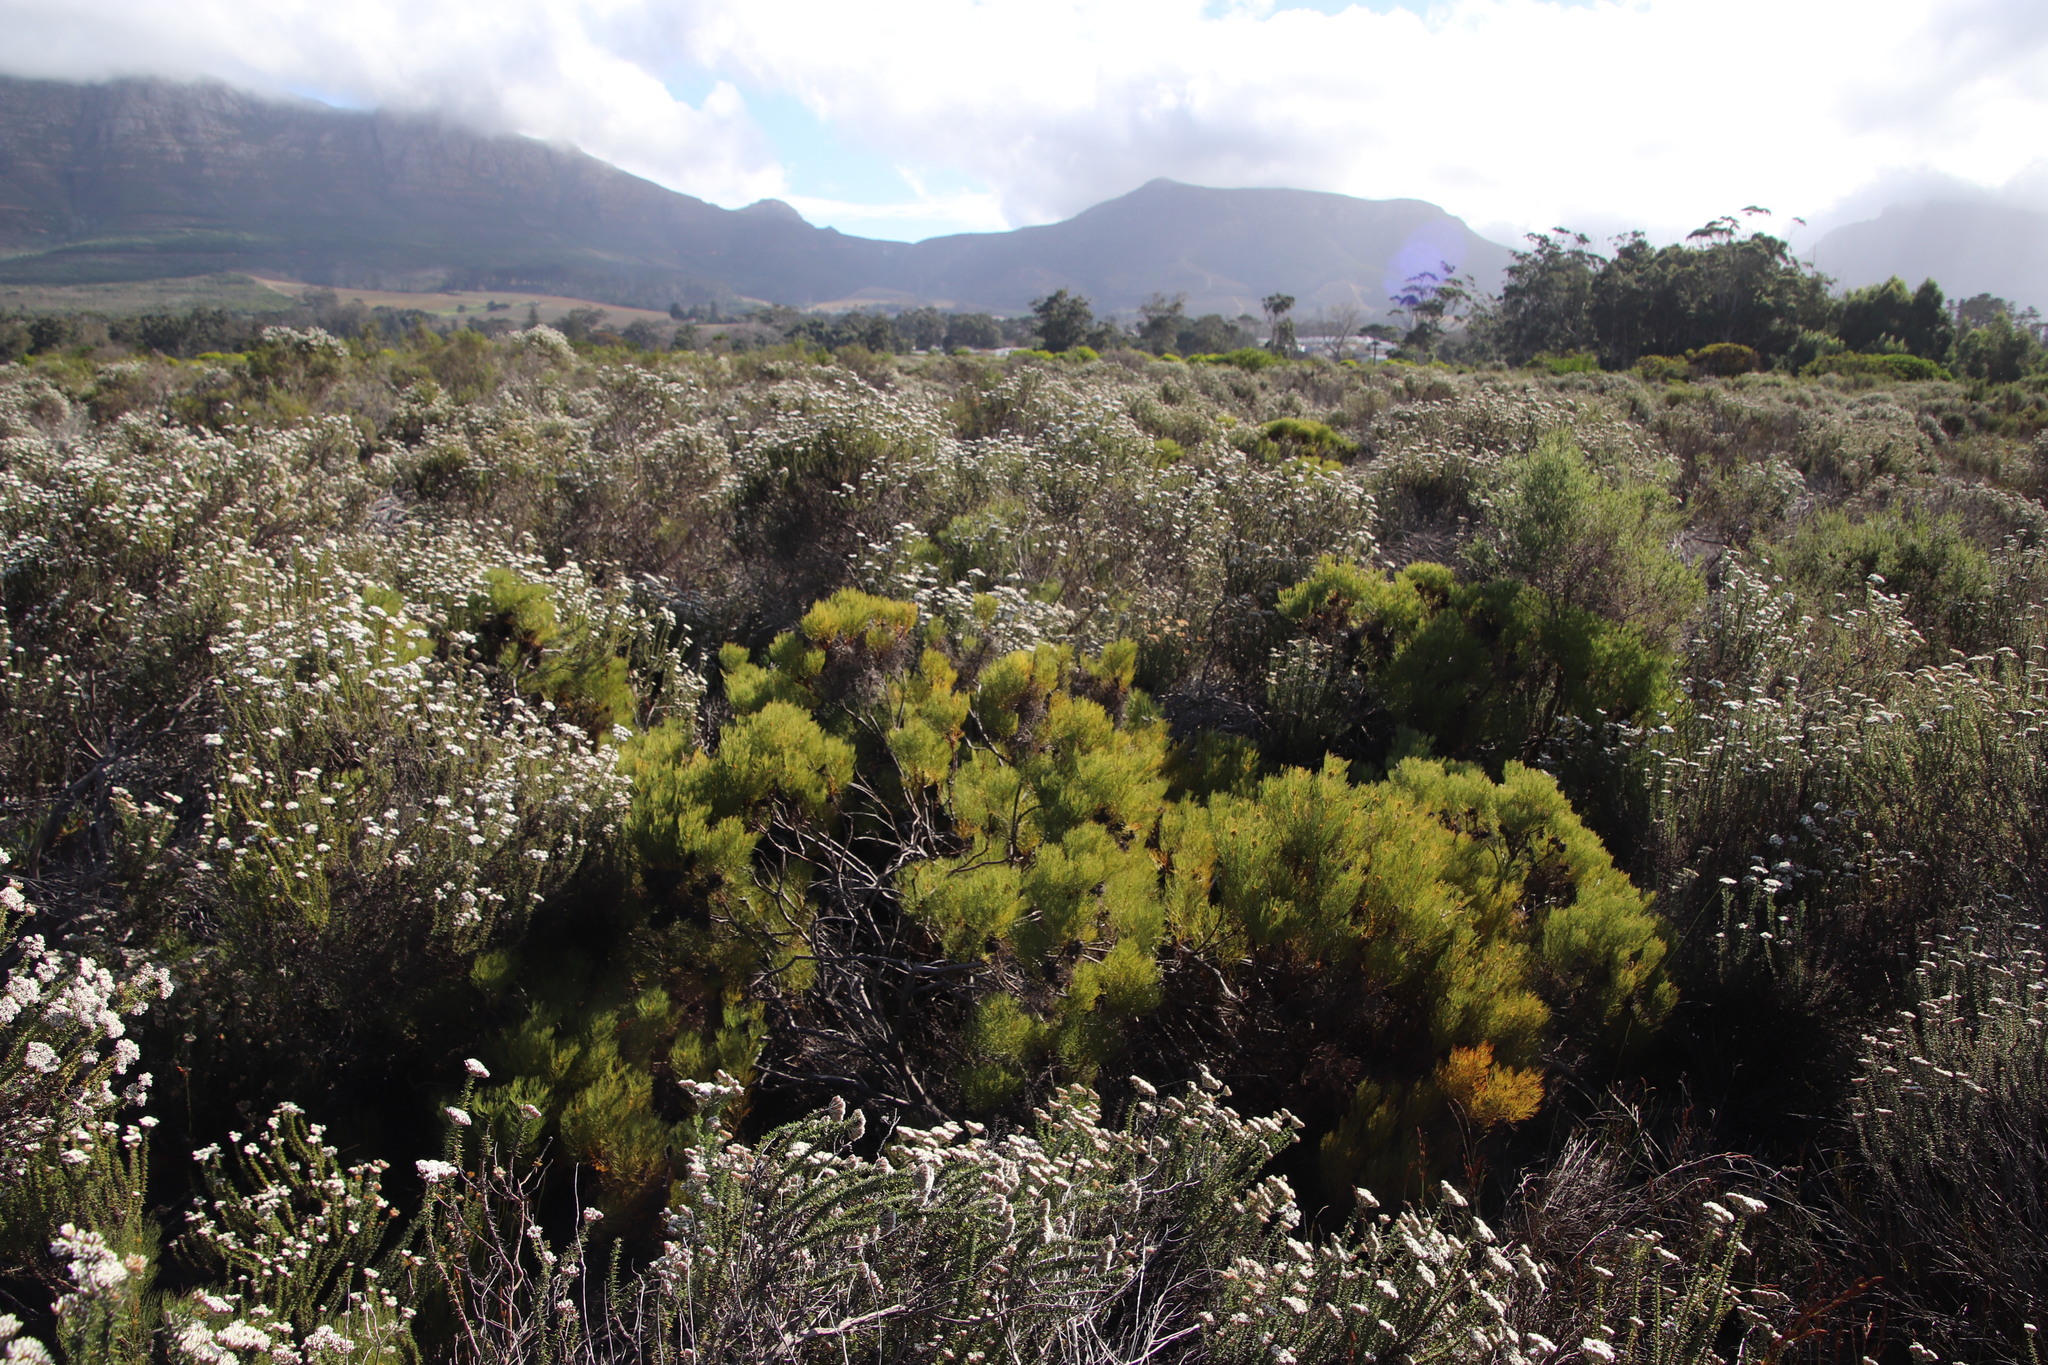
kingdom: Plantae
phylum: Tracheophyta
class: Magnoliopsida
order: Proteales
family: Proteaceae
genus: Serruria
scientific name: Serruria glomerata
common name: Cluster spiderhead
